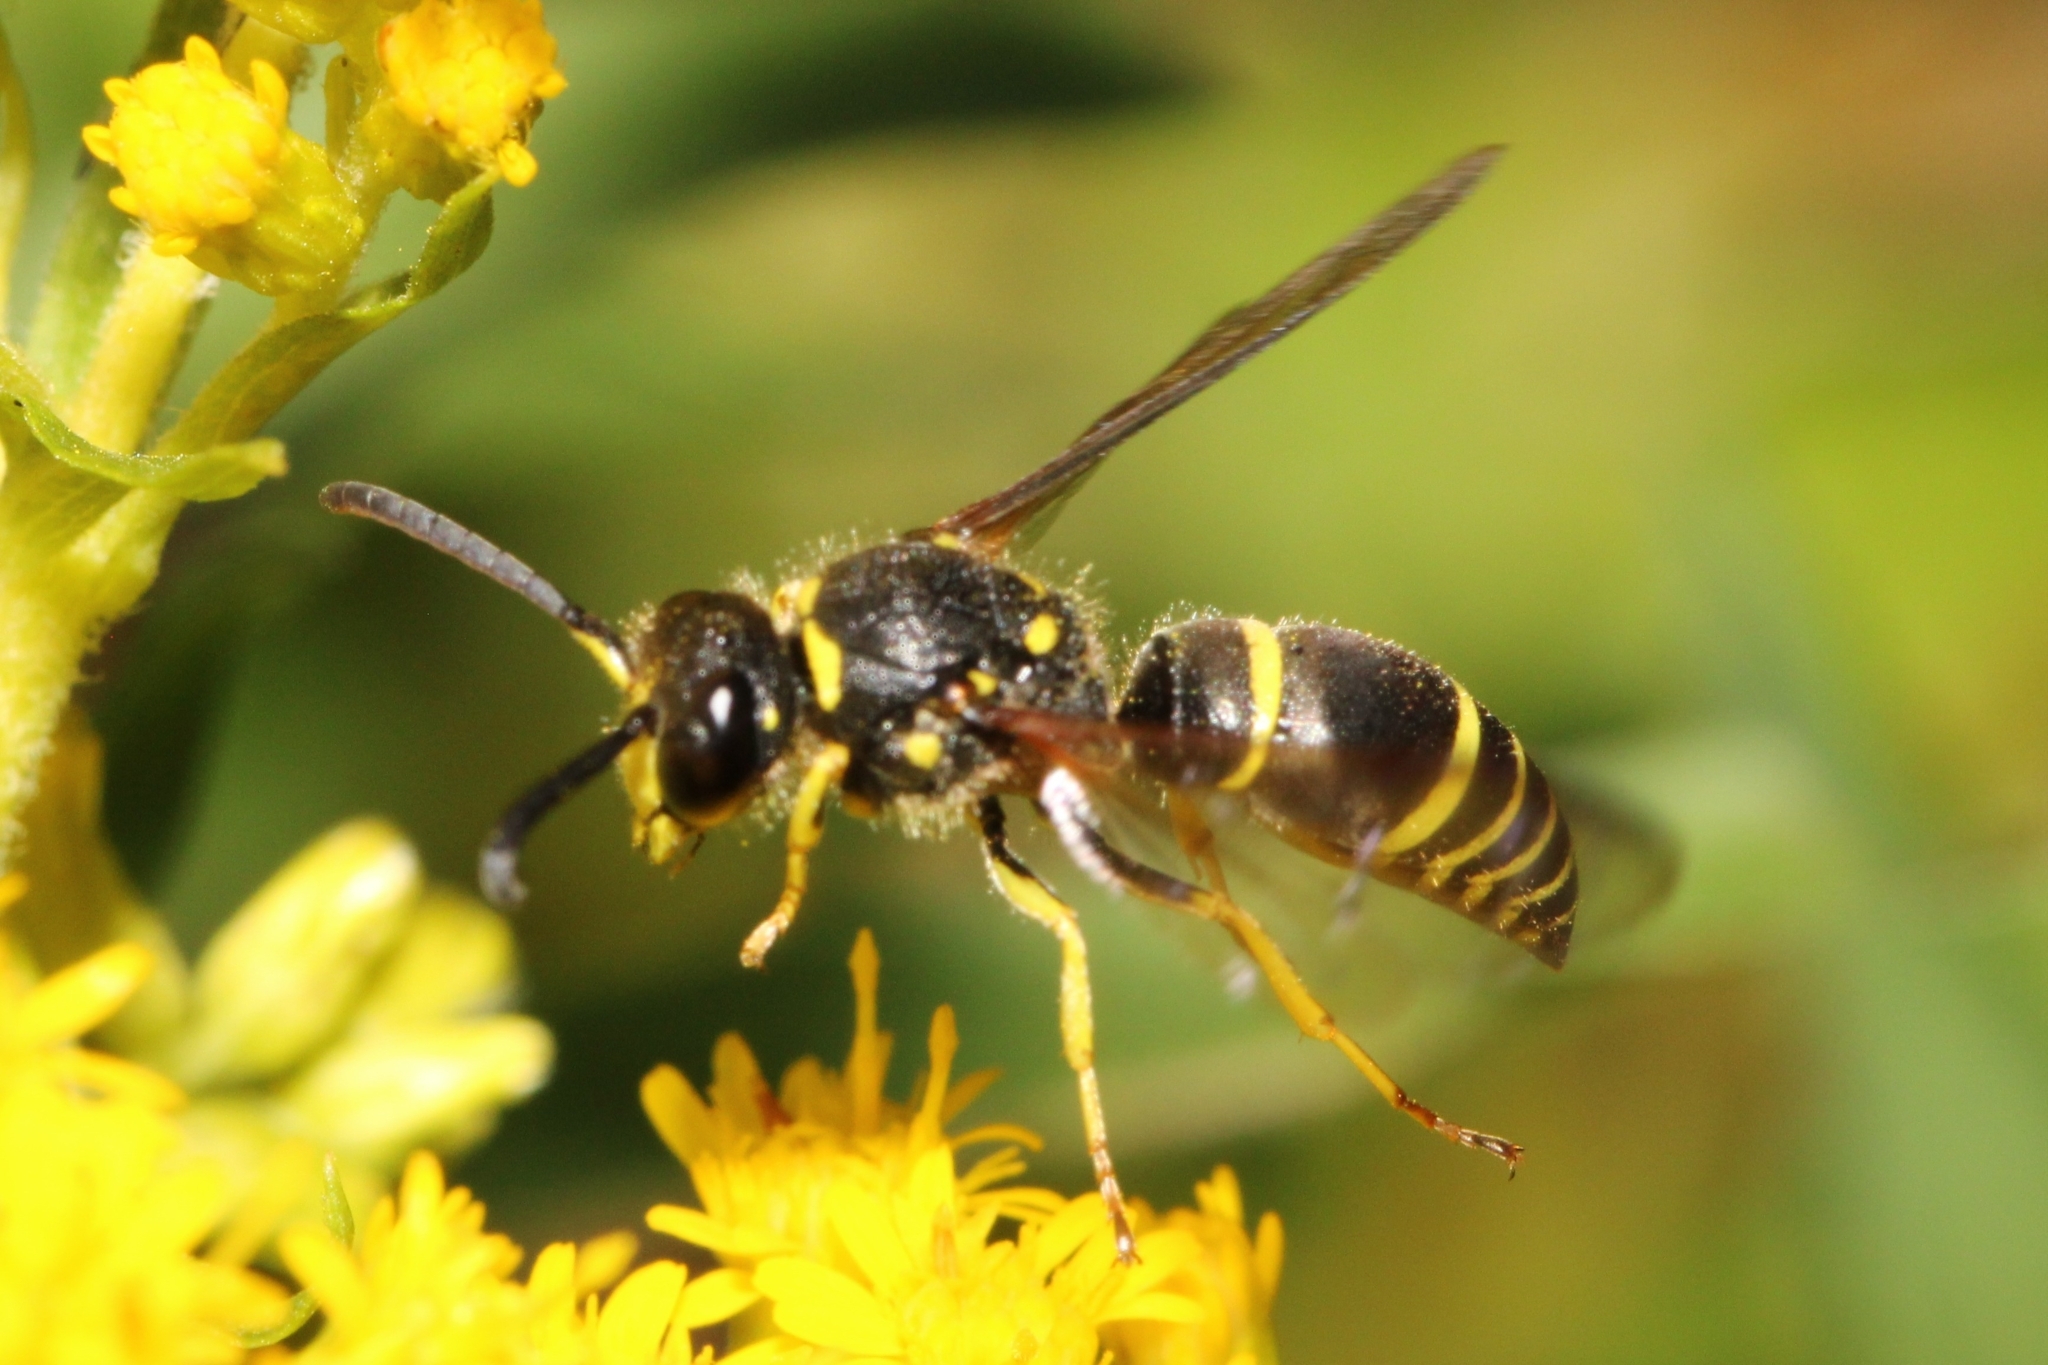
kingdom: Animalia
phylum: Arthropoda
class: Insecta
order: Hymenoptera
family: Vespidae
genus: Ancistrocerus
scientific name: Ancistrocerus
